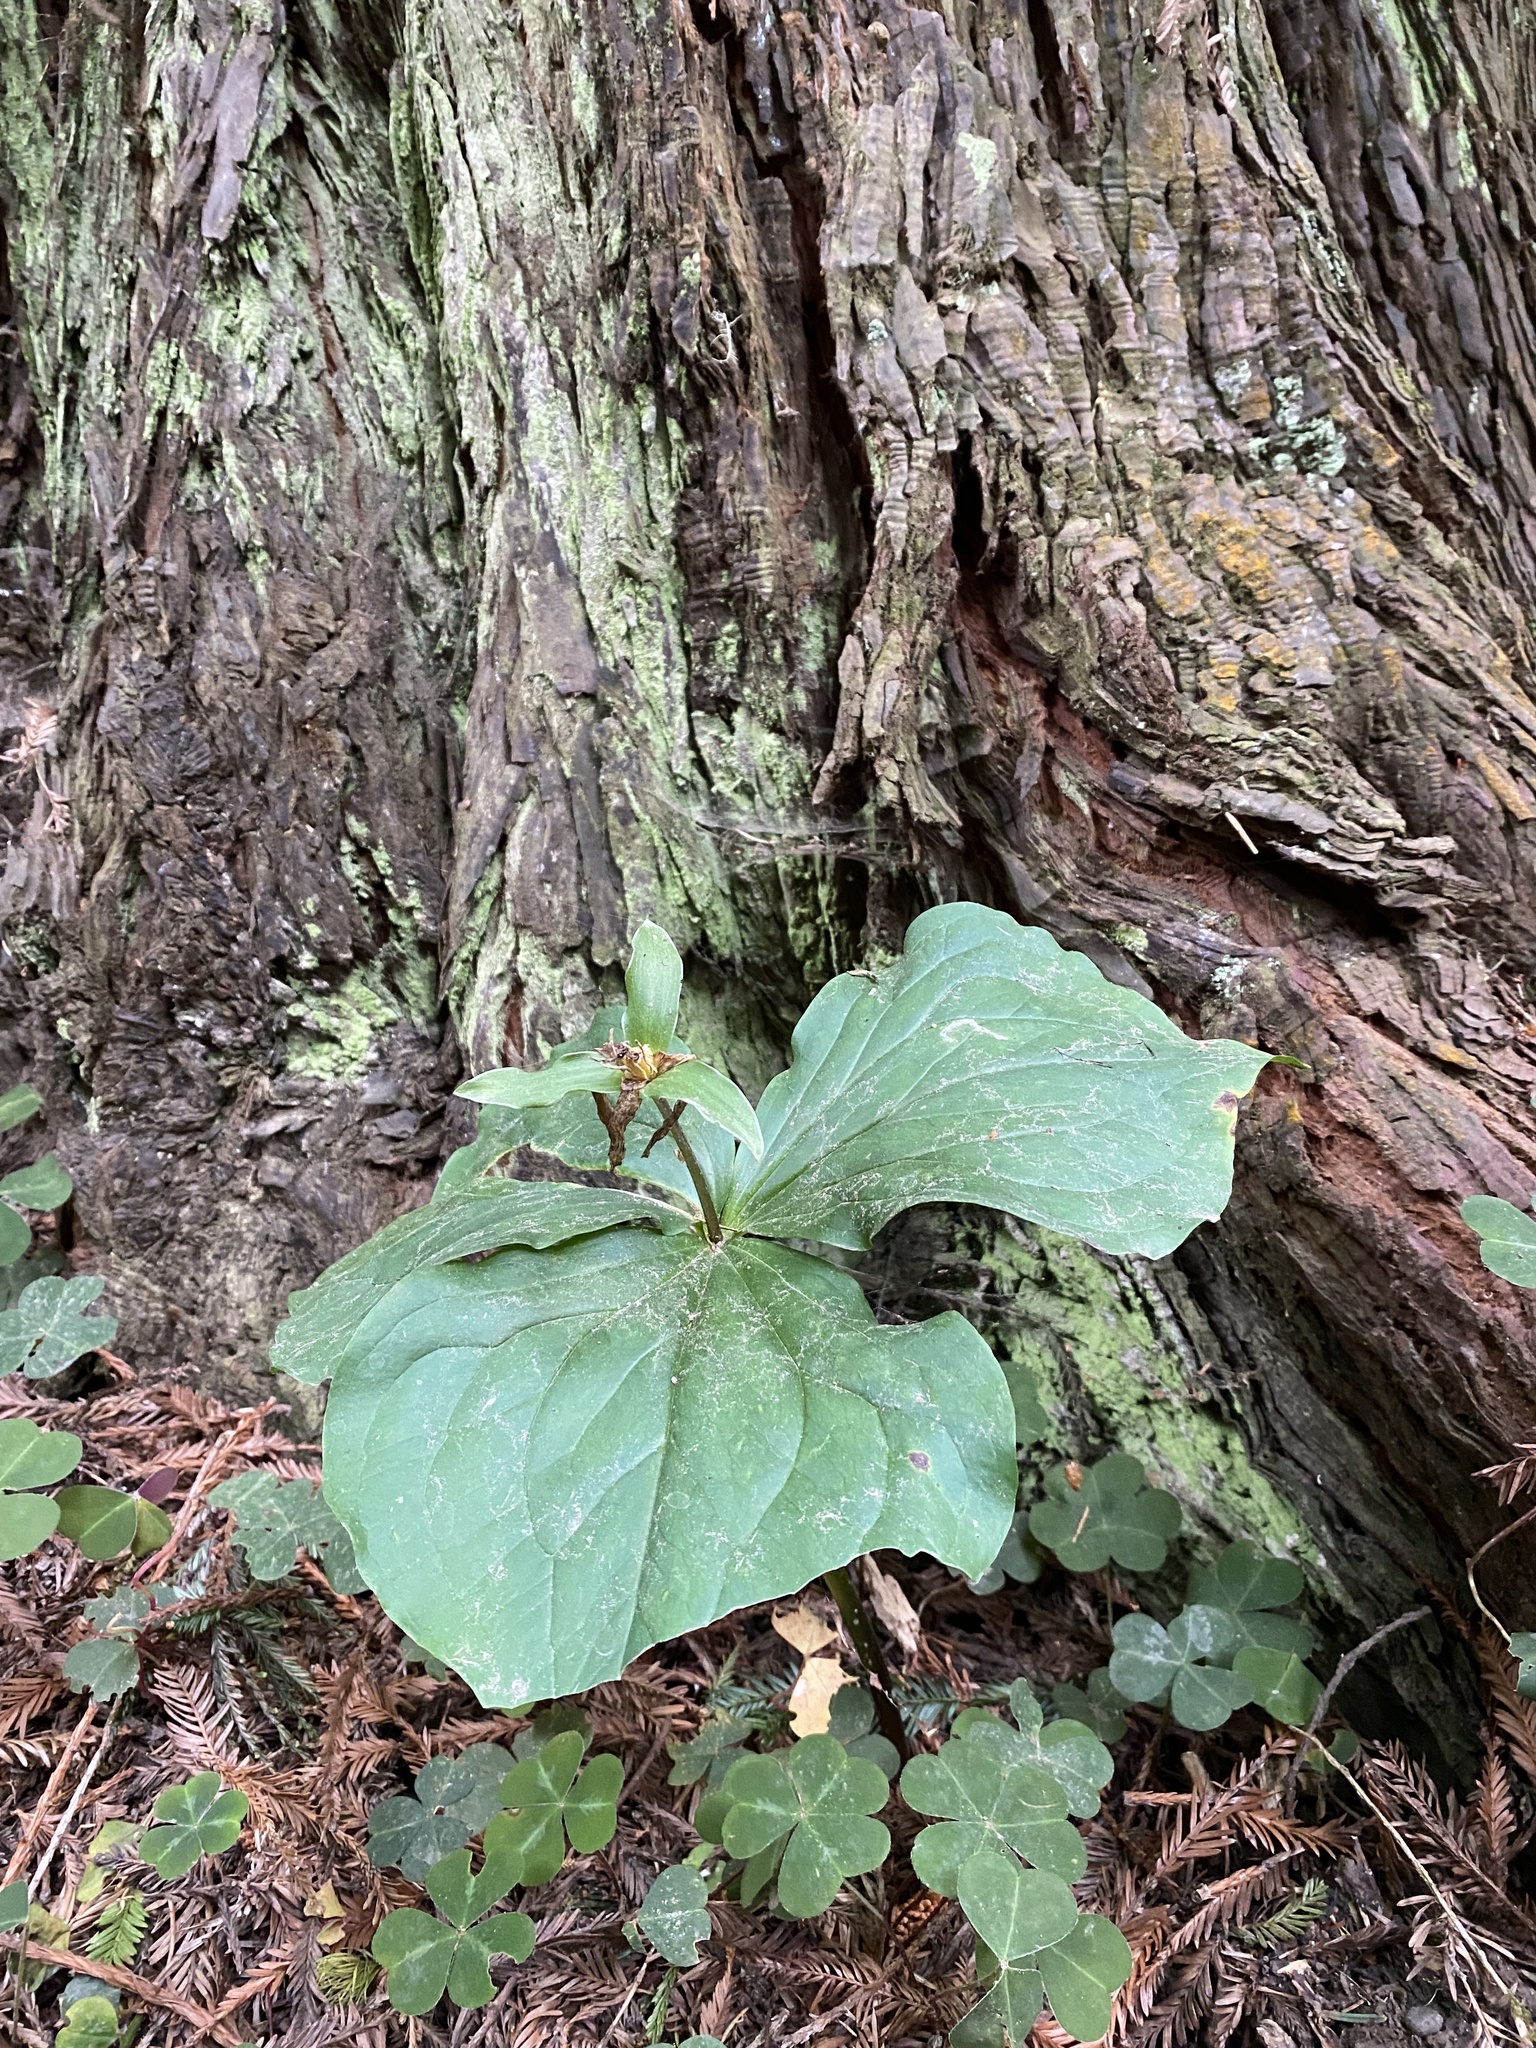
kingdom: Plantae
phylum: Tracheophyta
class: Liliopsida
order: Liliales
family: Melanthiaceae
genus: Trillium
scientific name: Trillium ovatum
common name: Pacific trillium
